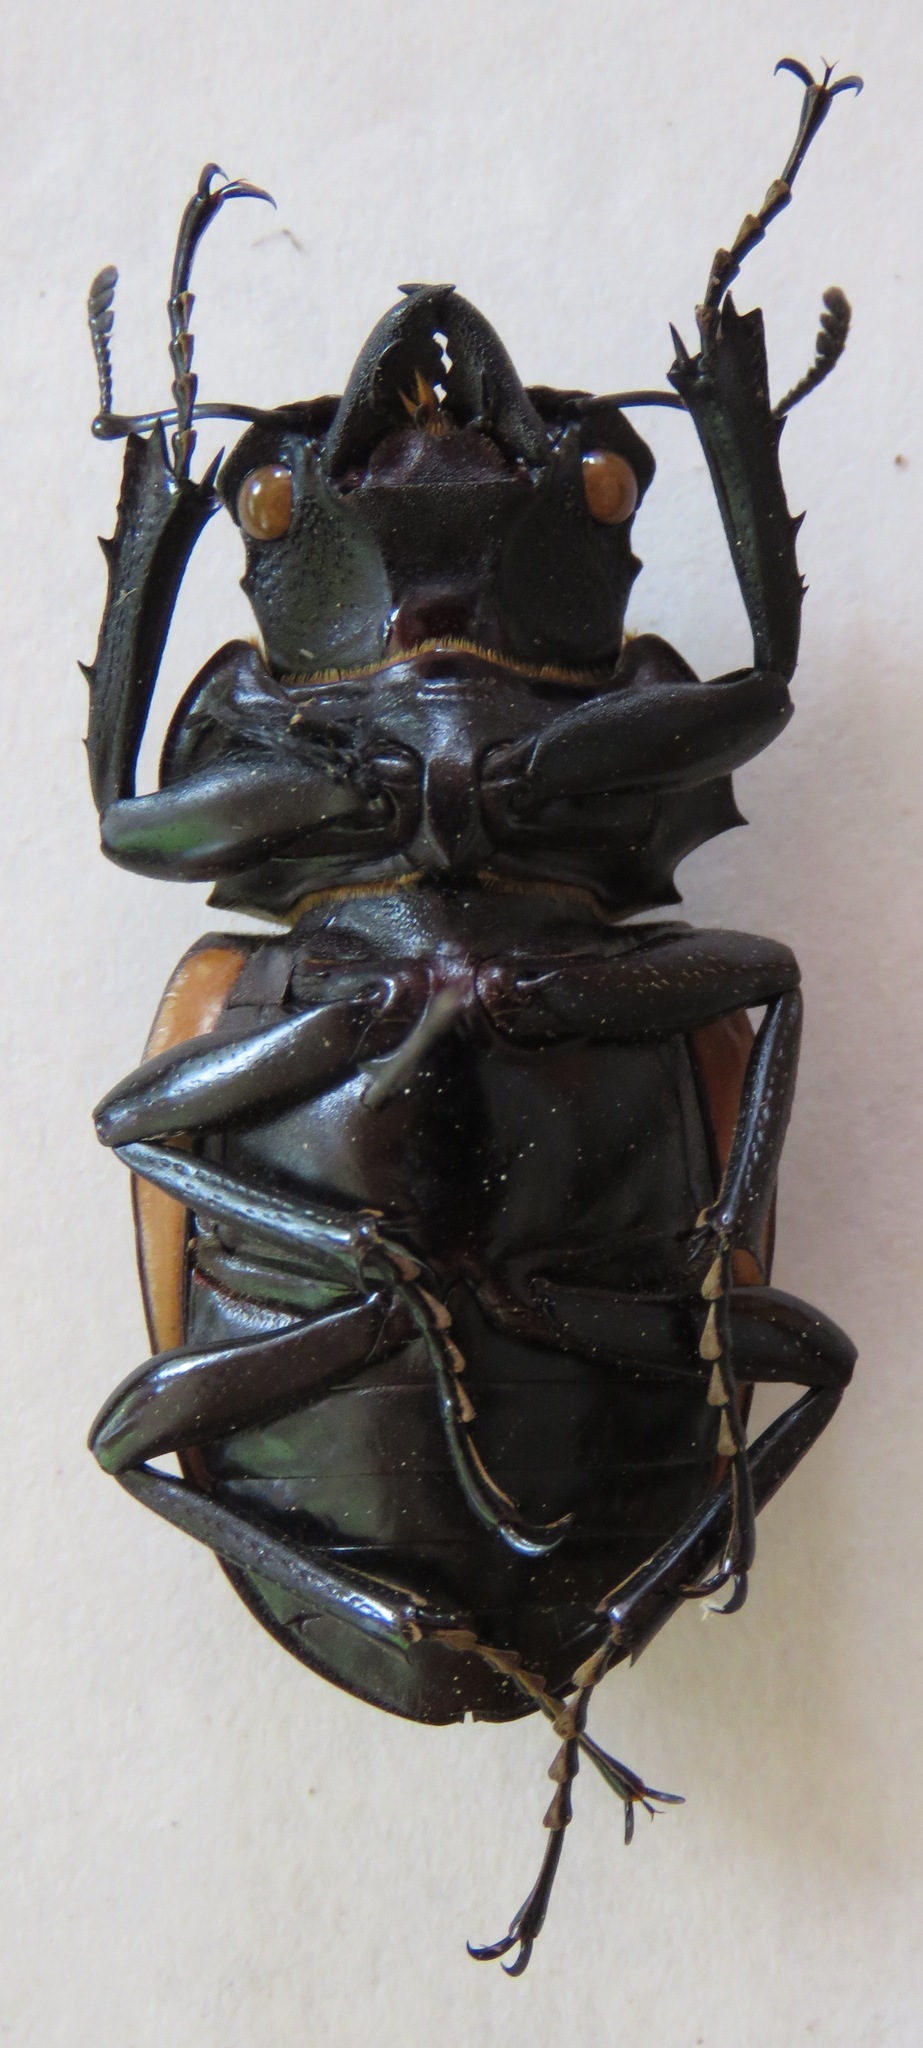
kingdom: Animalia
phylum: Arthropoda
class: Insecta
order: Coleoptera
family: Lucanidae
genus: Odontolabis
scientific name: Odontolabis cuvera
